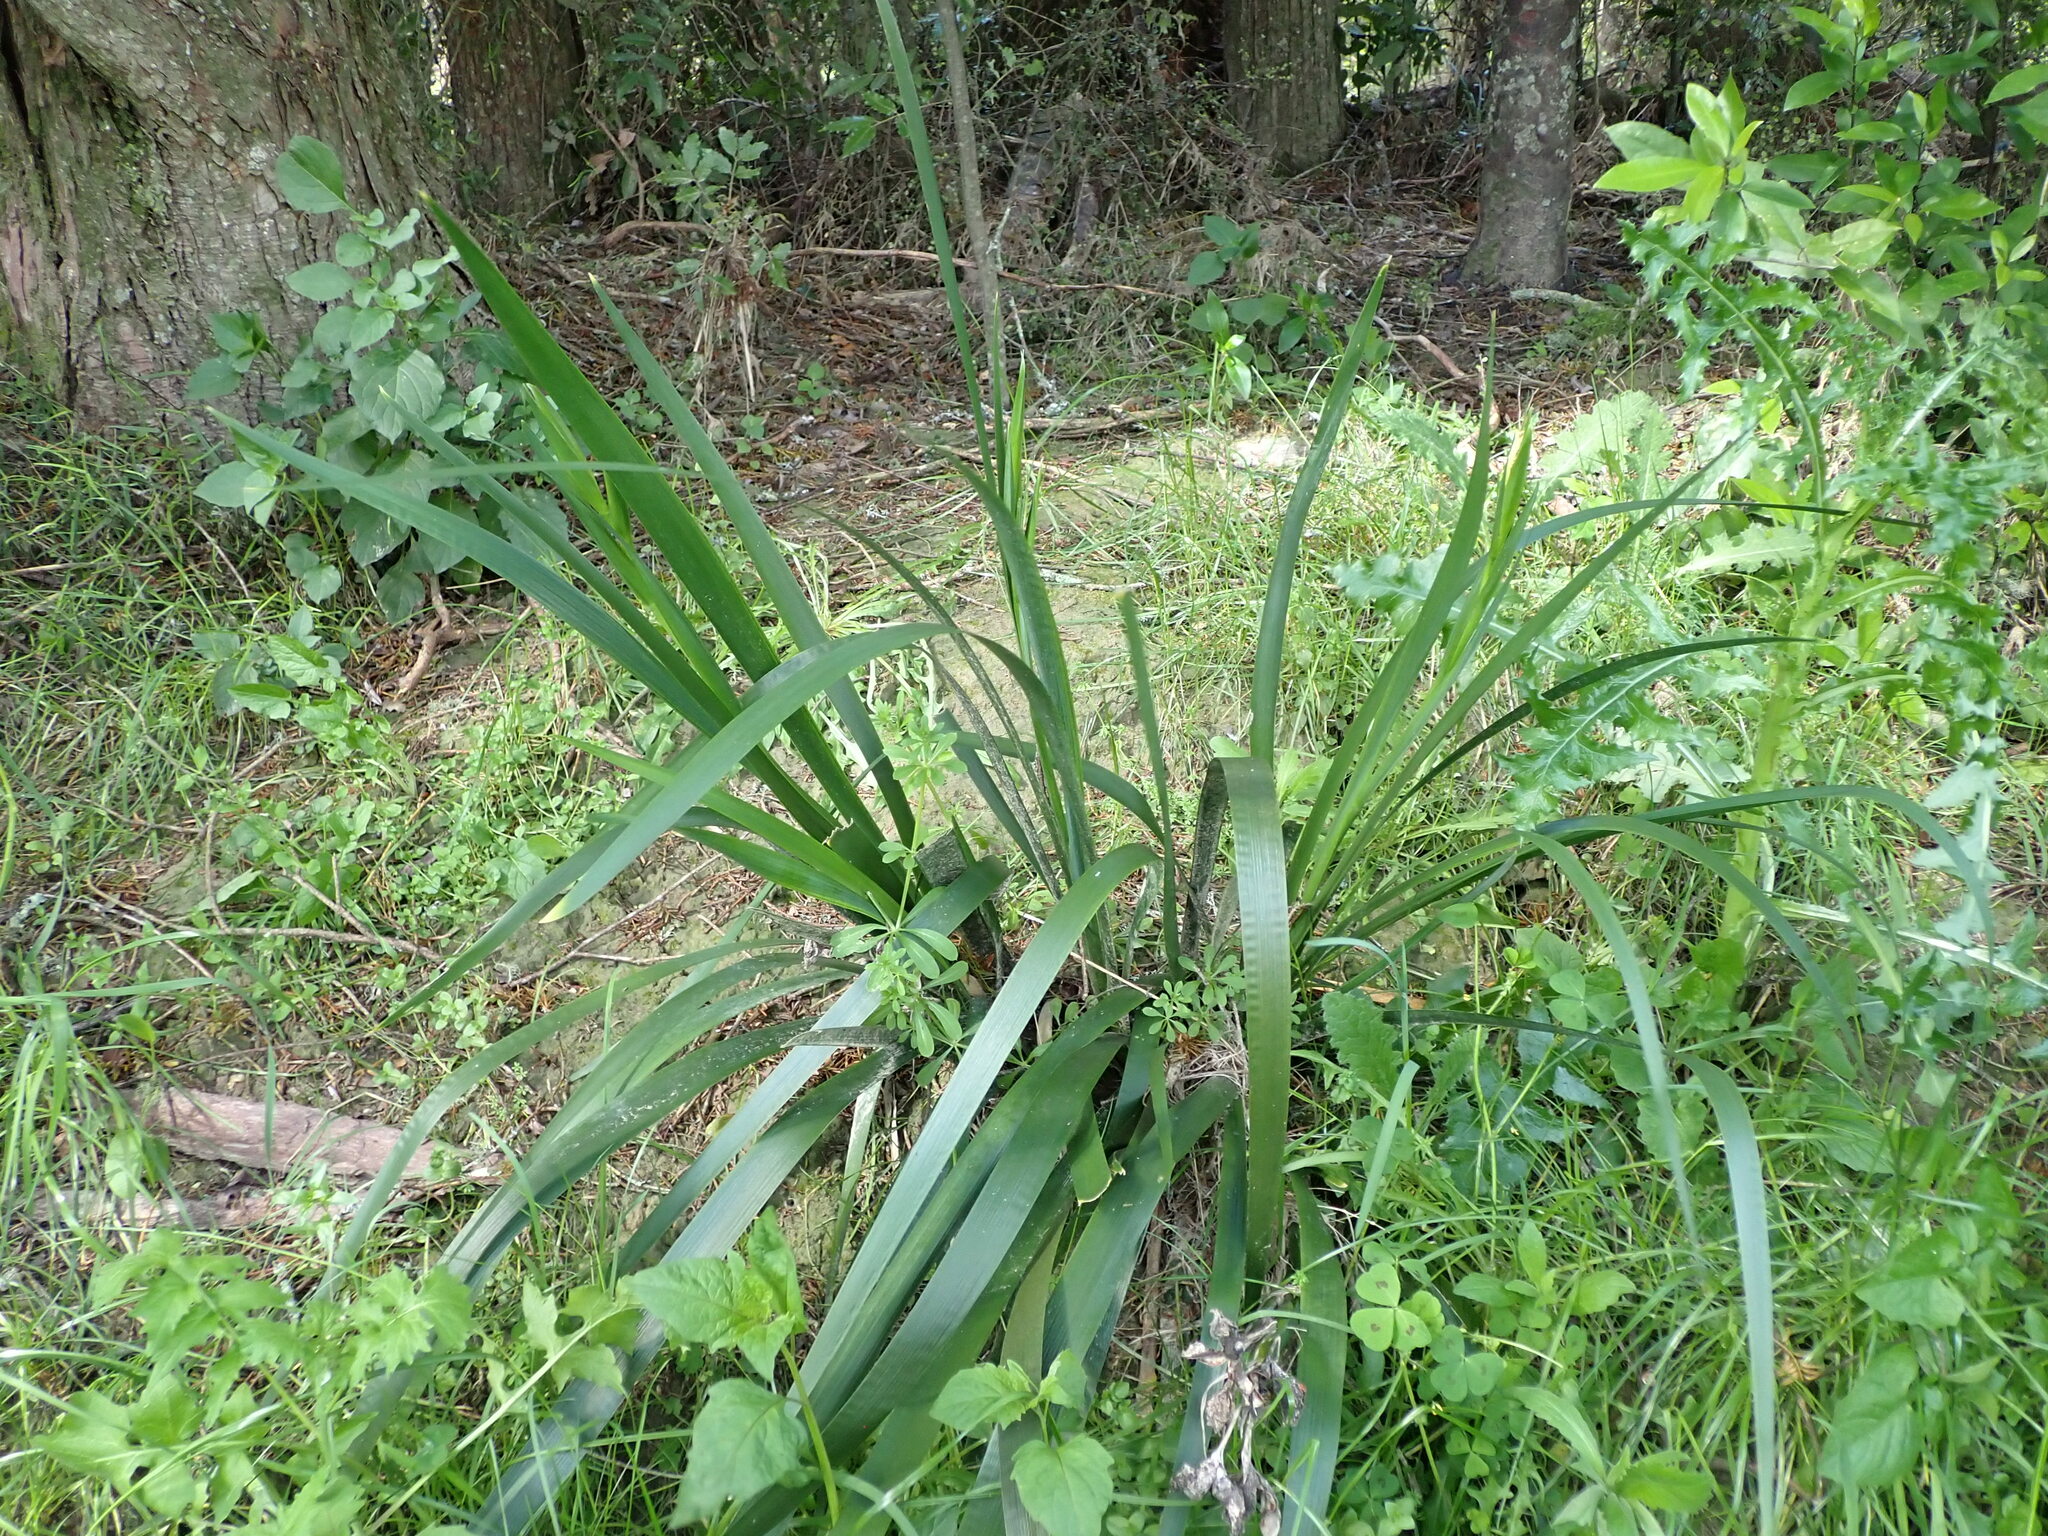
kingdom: Plantae
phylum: Tracheophyta
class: Liliopsida
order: Asparagales
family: Iridaceae
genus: Iris
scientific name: Iris foetidissima
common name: Stinking iris
